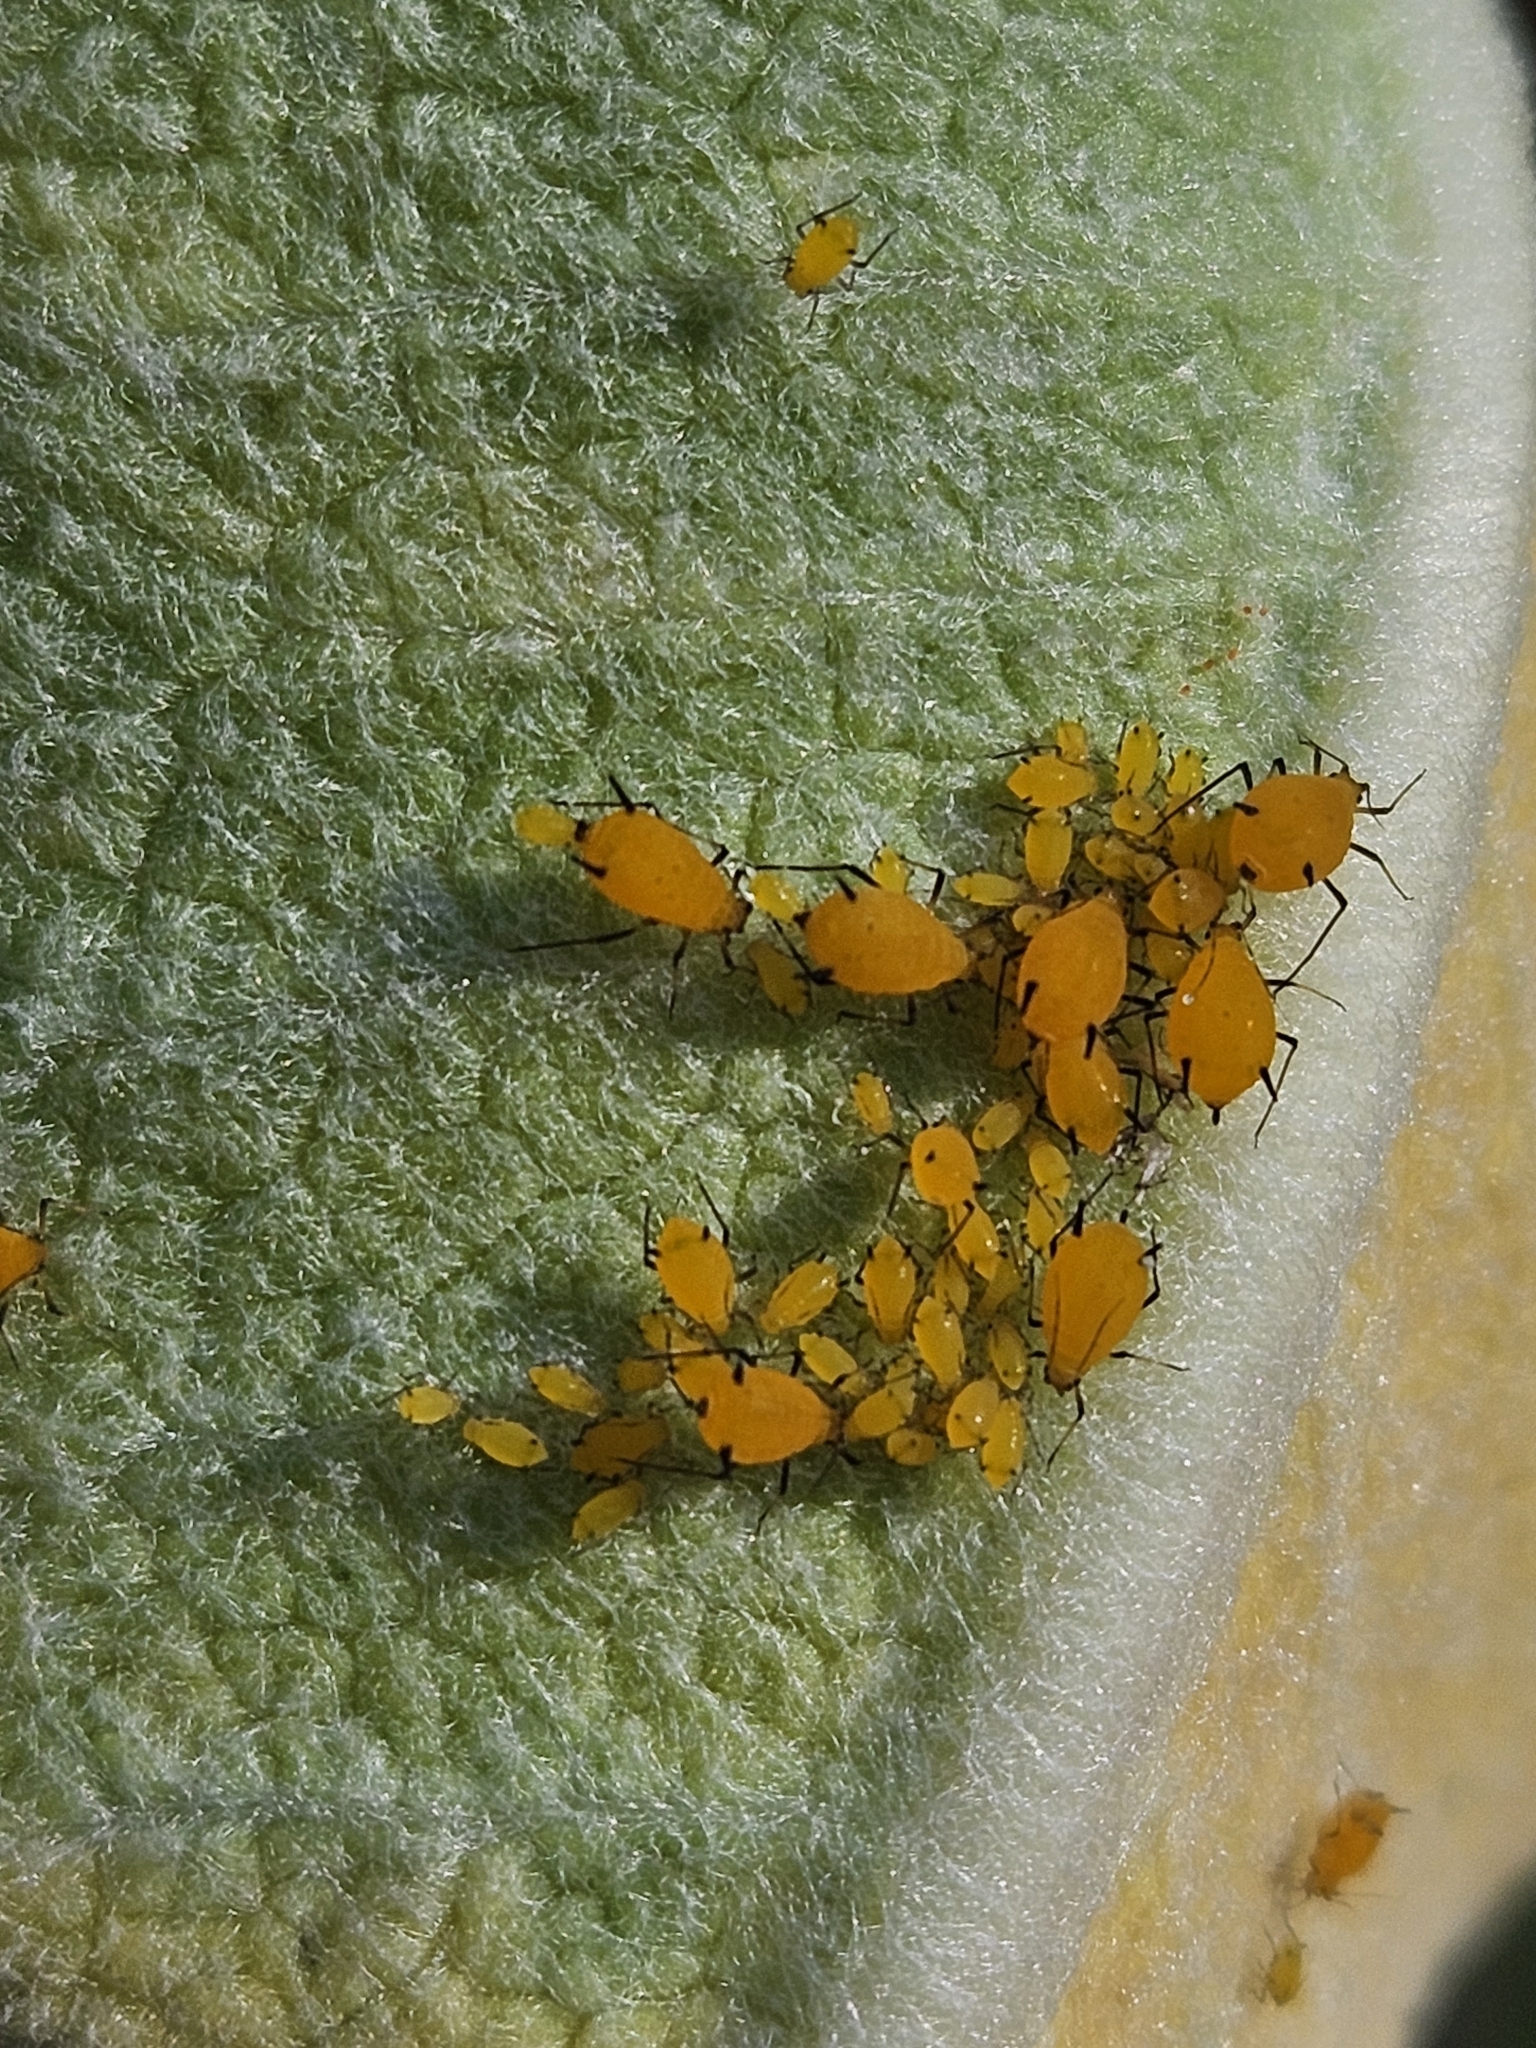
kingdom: Animalia
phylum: Arthropoda
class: Insecta
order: Hemiptera
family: Aphididae
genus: Aphis
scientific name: Aphis nerii
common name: Oleander aphid
